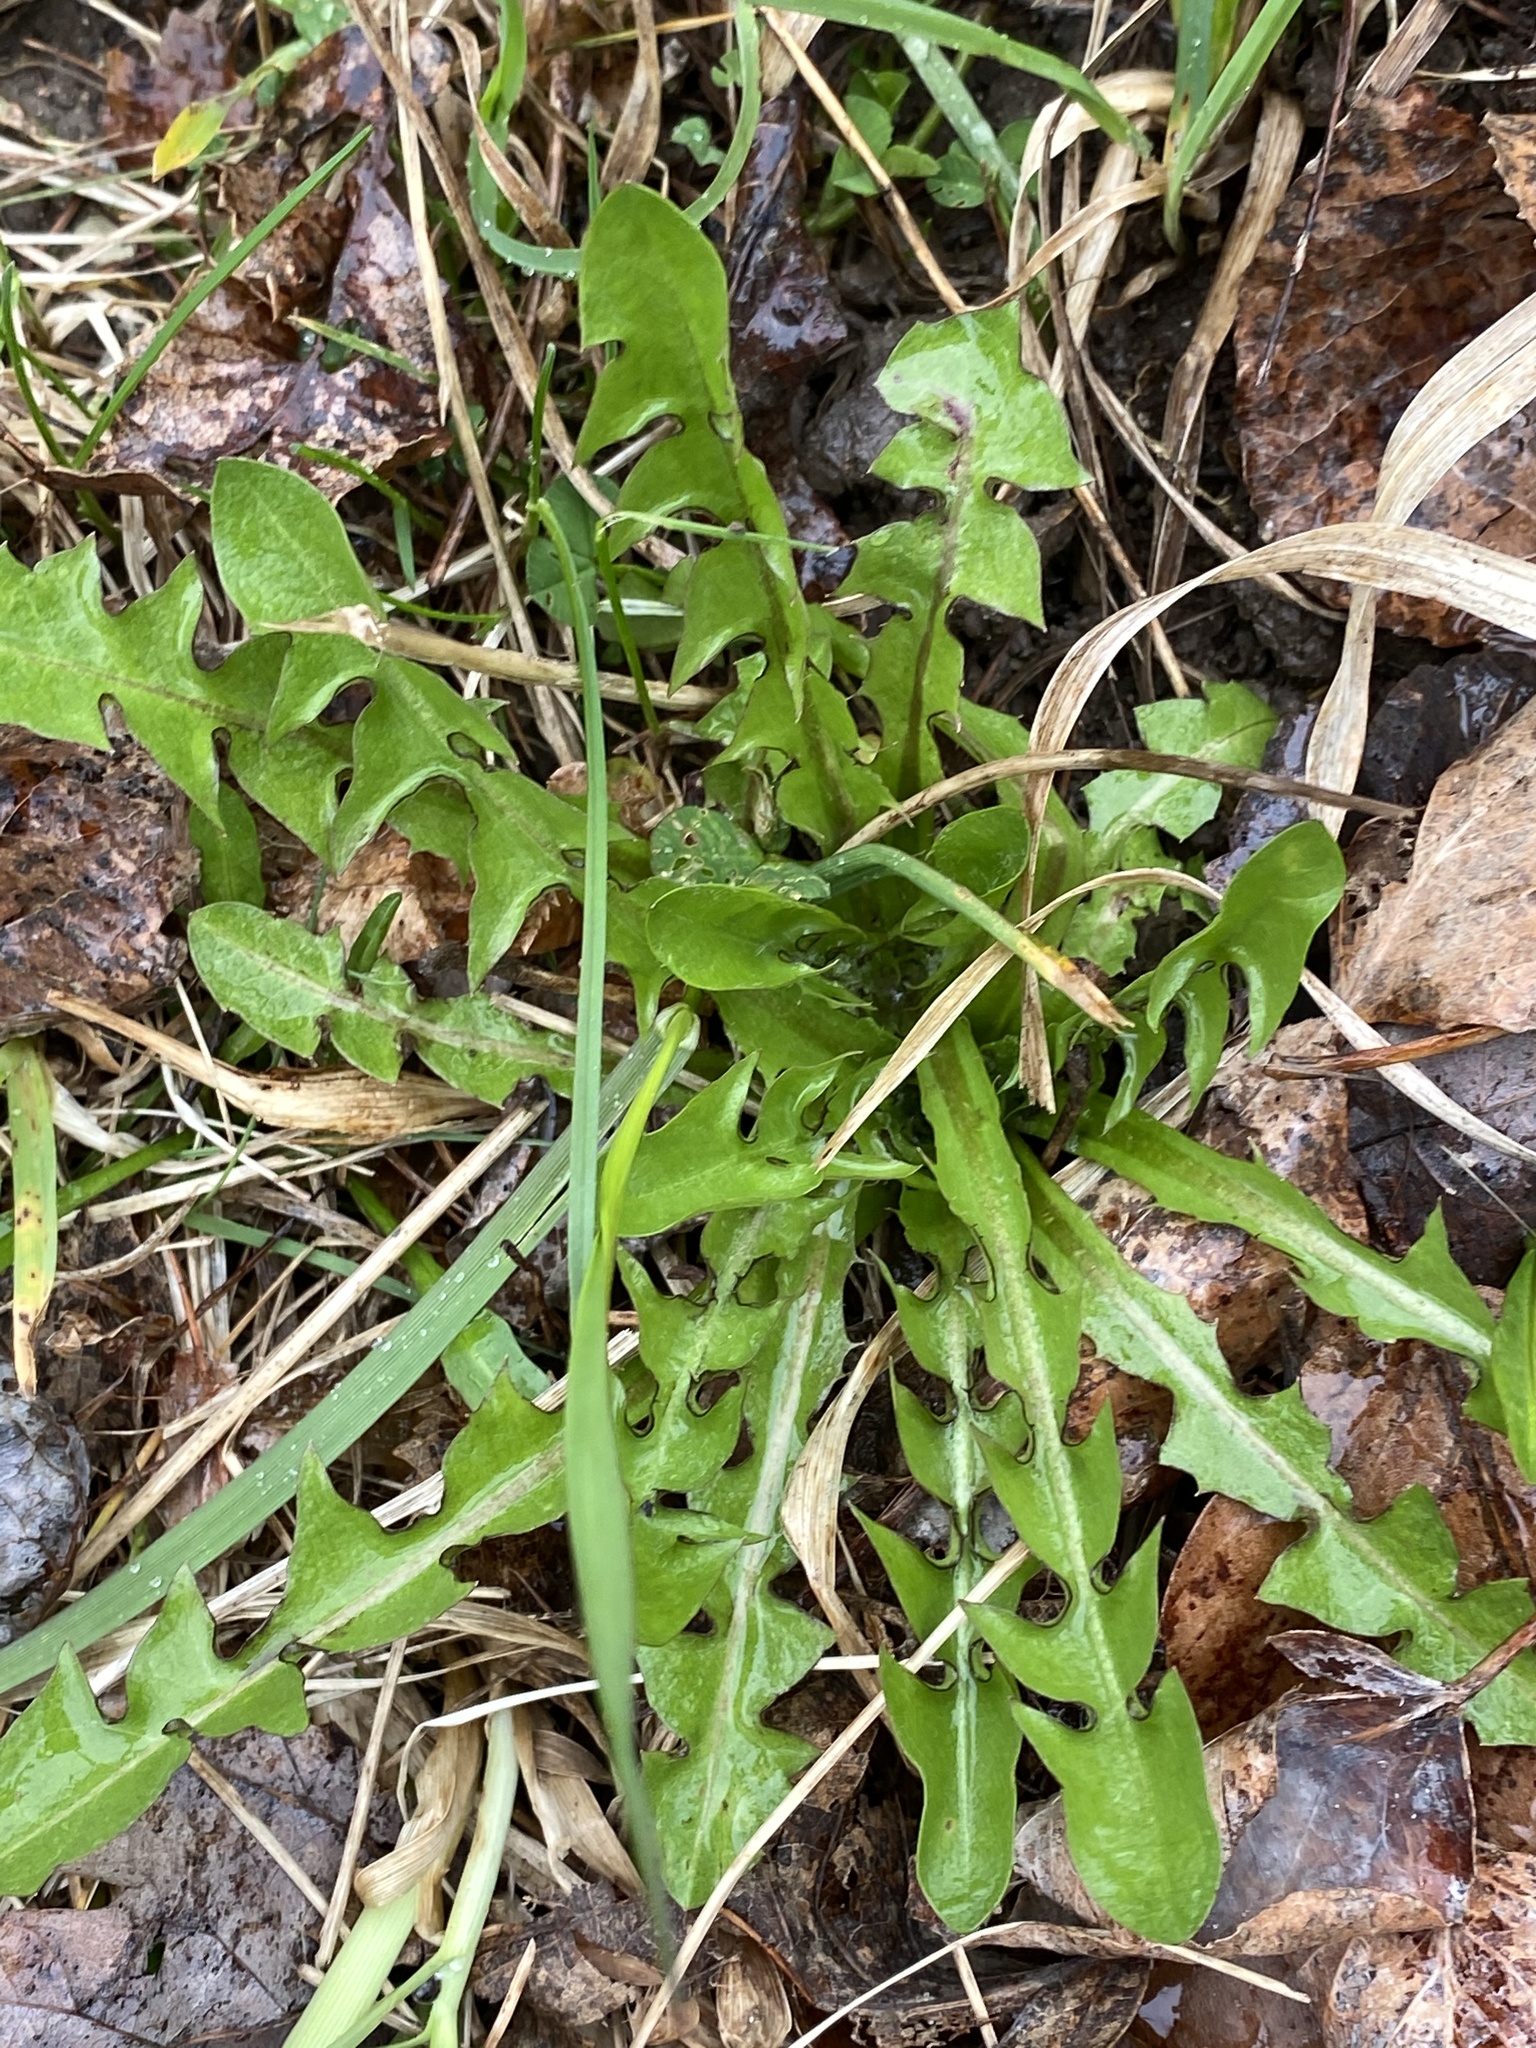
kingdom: Plantae
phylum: Tracheophyta
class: Magnoliopsida
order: Asterales
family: Asteraceae
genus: Taraxacum
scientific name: Taraxacum officinale
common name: Common dandelion
